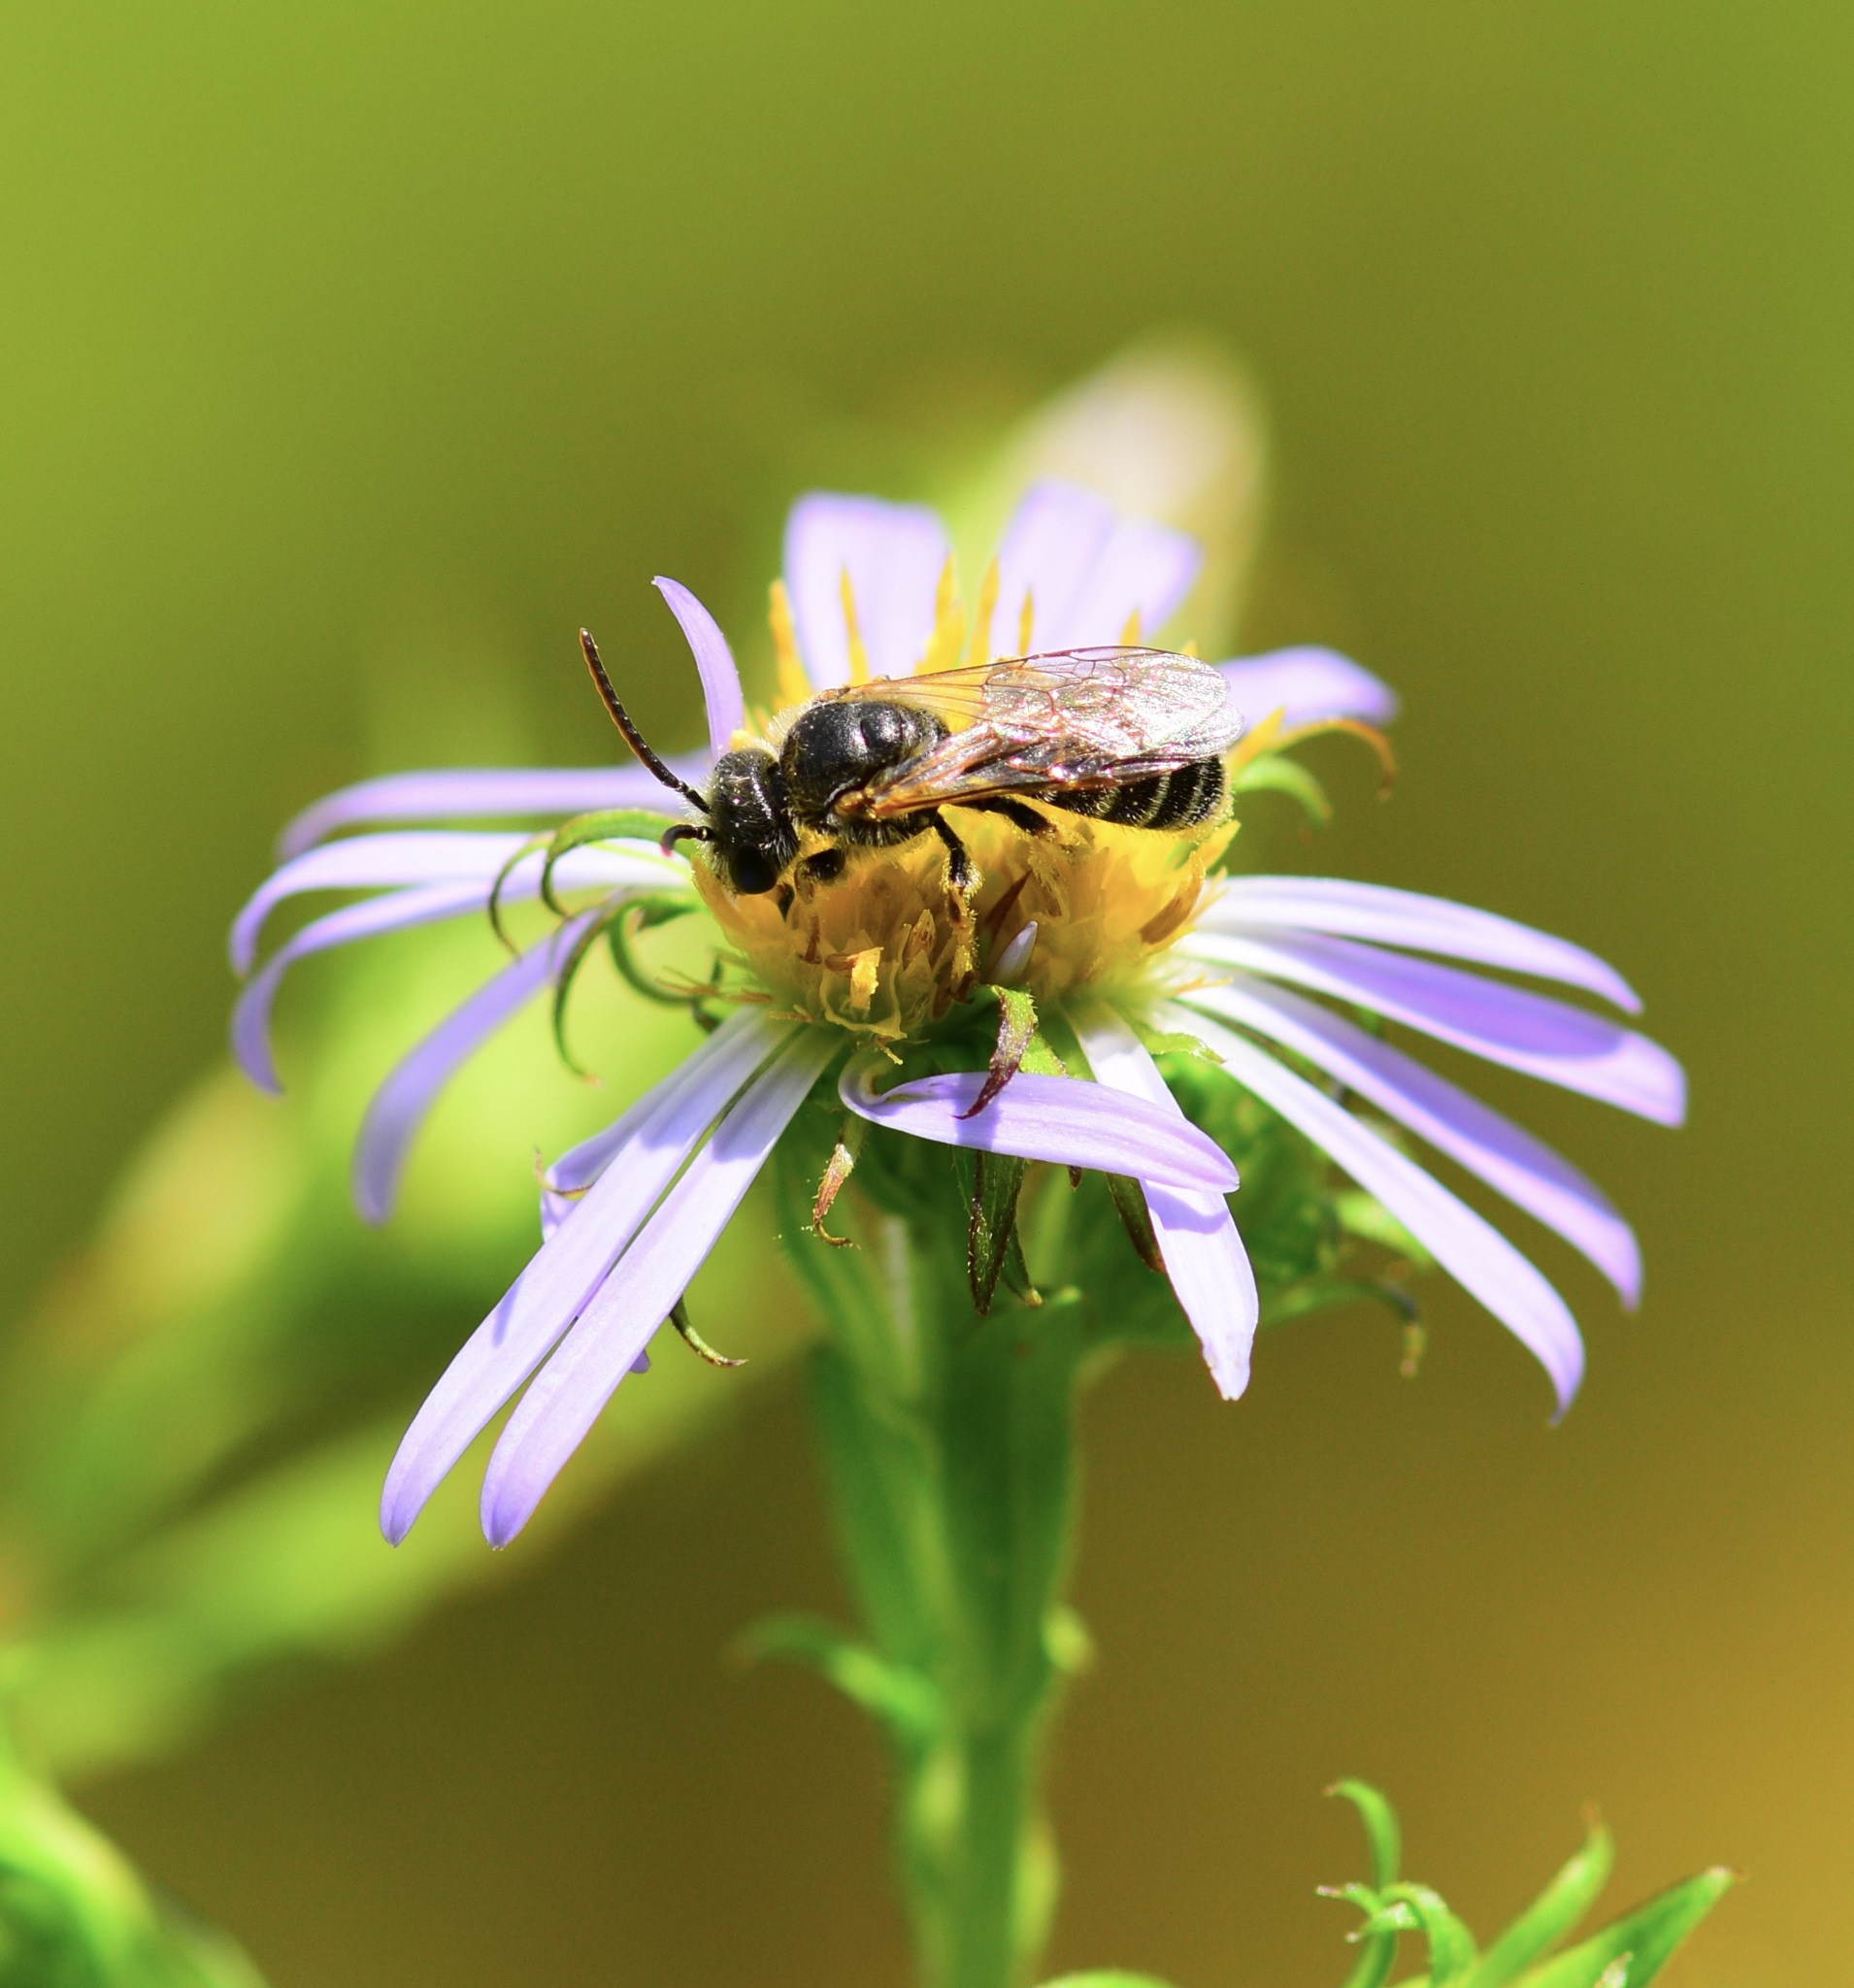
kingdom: Animalia
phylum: Arthropoda
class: Insecta
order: Hymenoptera
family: Halictidae
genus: Halictus
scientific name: Halictus ligatus
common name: Ligated furrow bee
